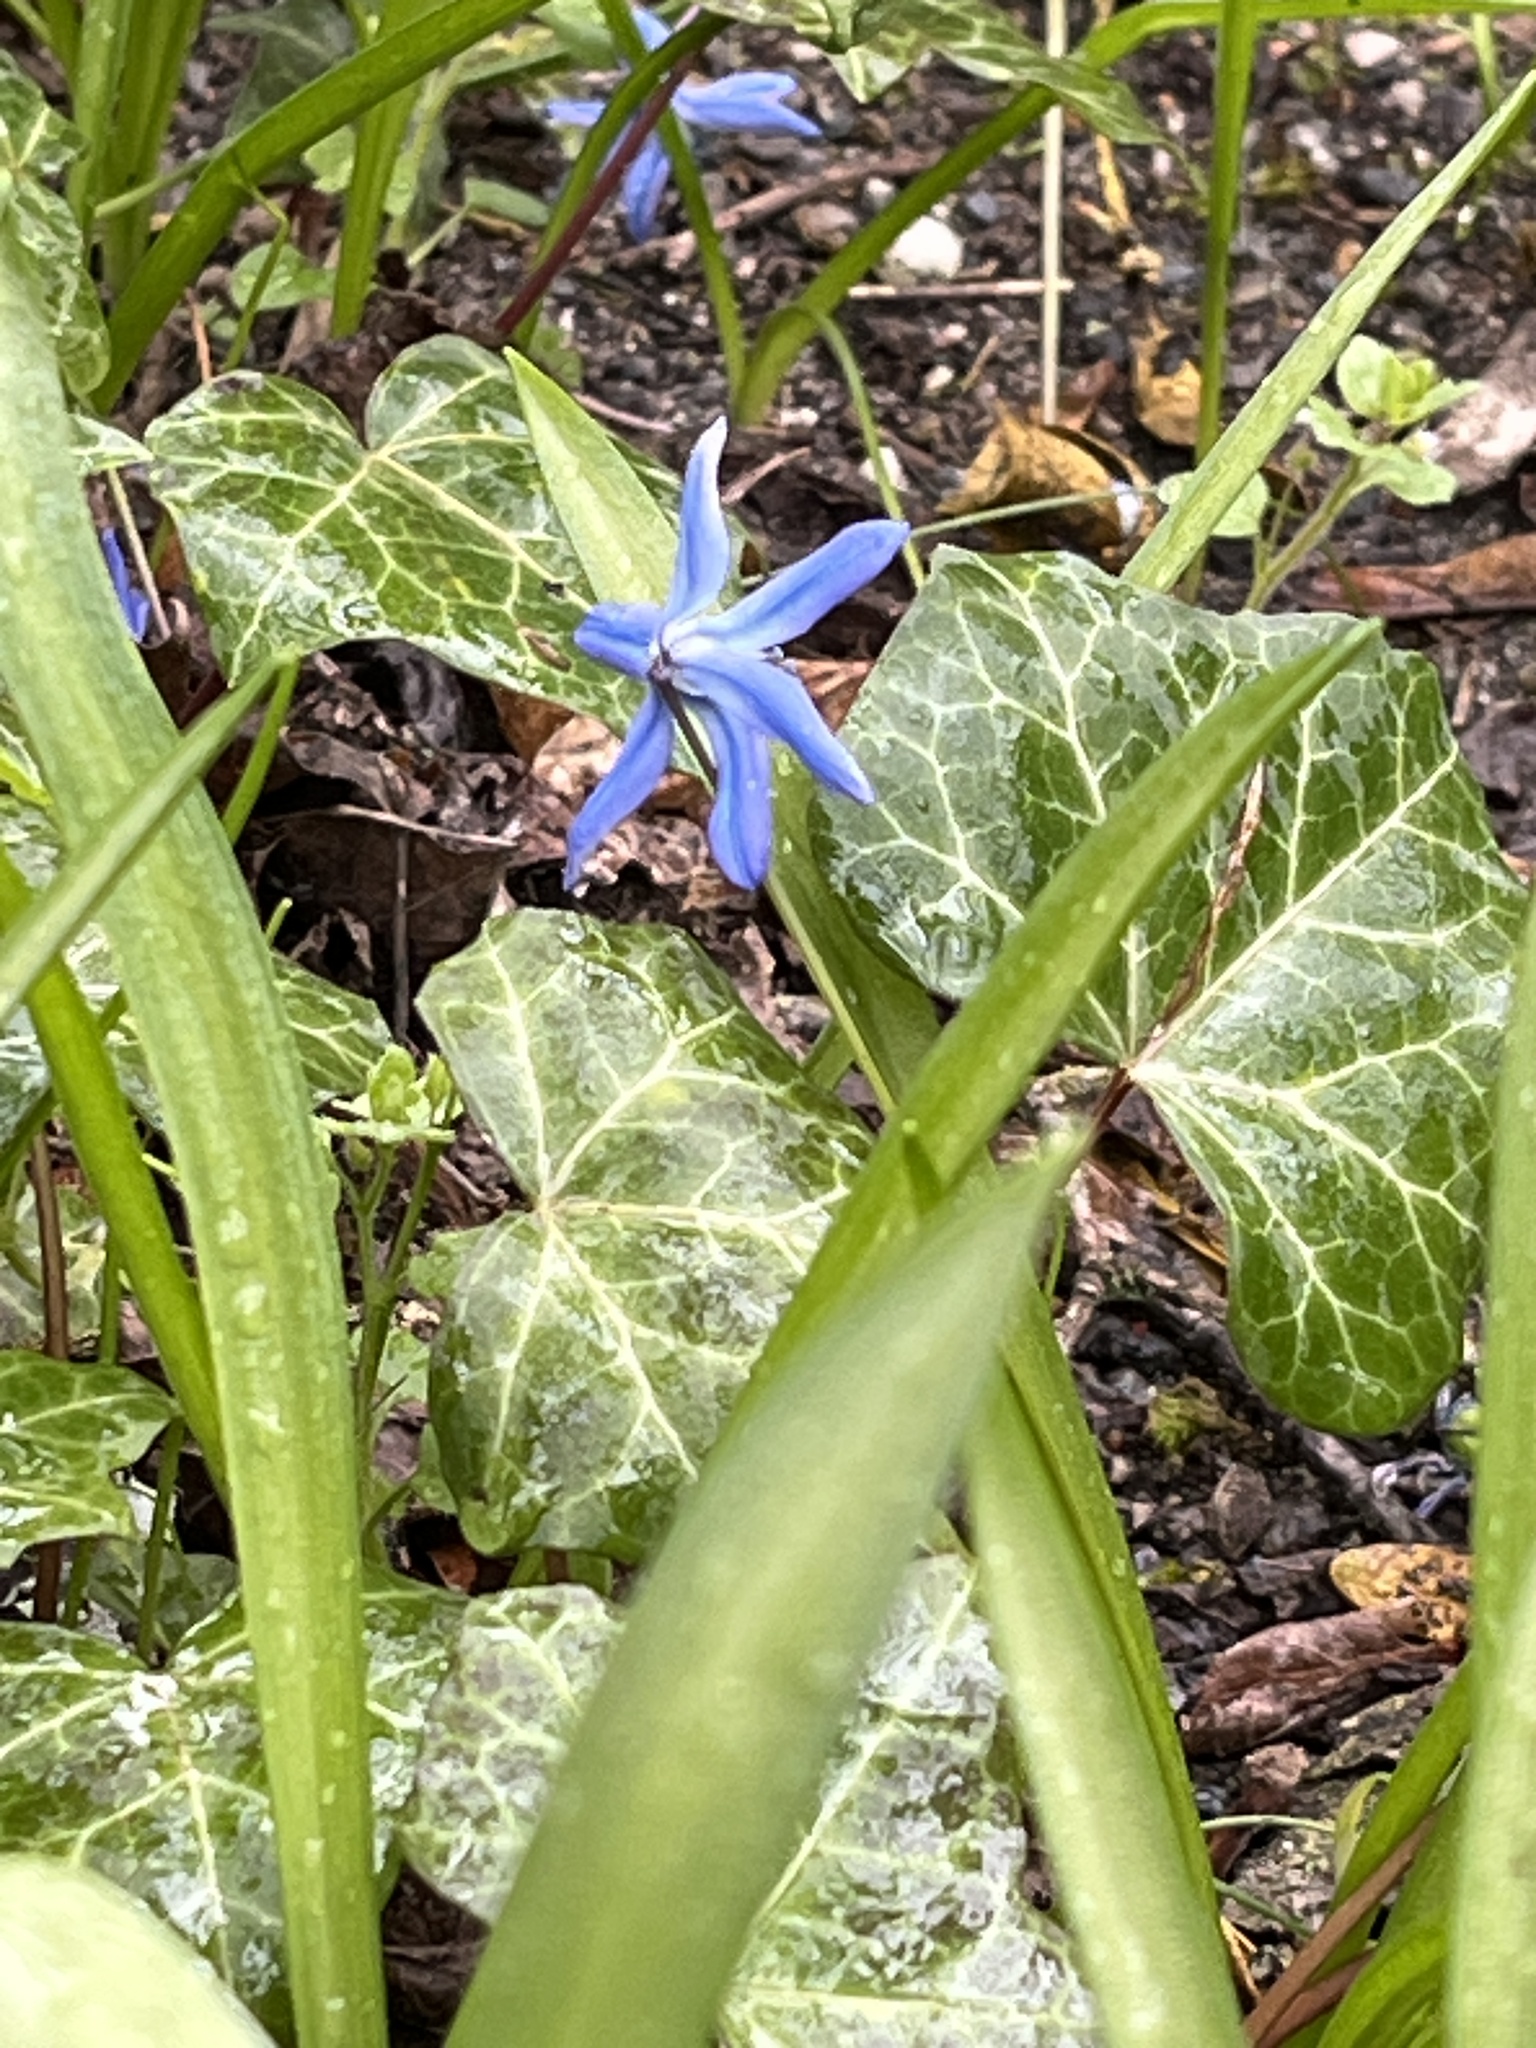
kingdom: Plantae
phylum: Tracheophyta
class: Liliopsida
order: Asparagales
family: Asparagaceae
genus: Scilla
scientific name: Scilla siberica
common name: Siberian squill
